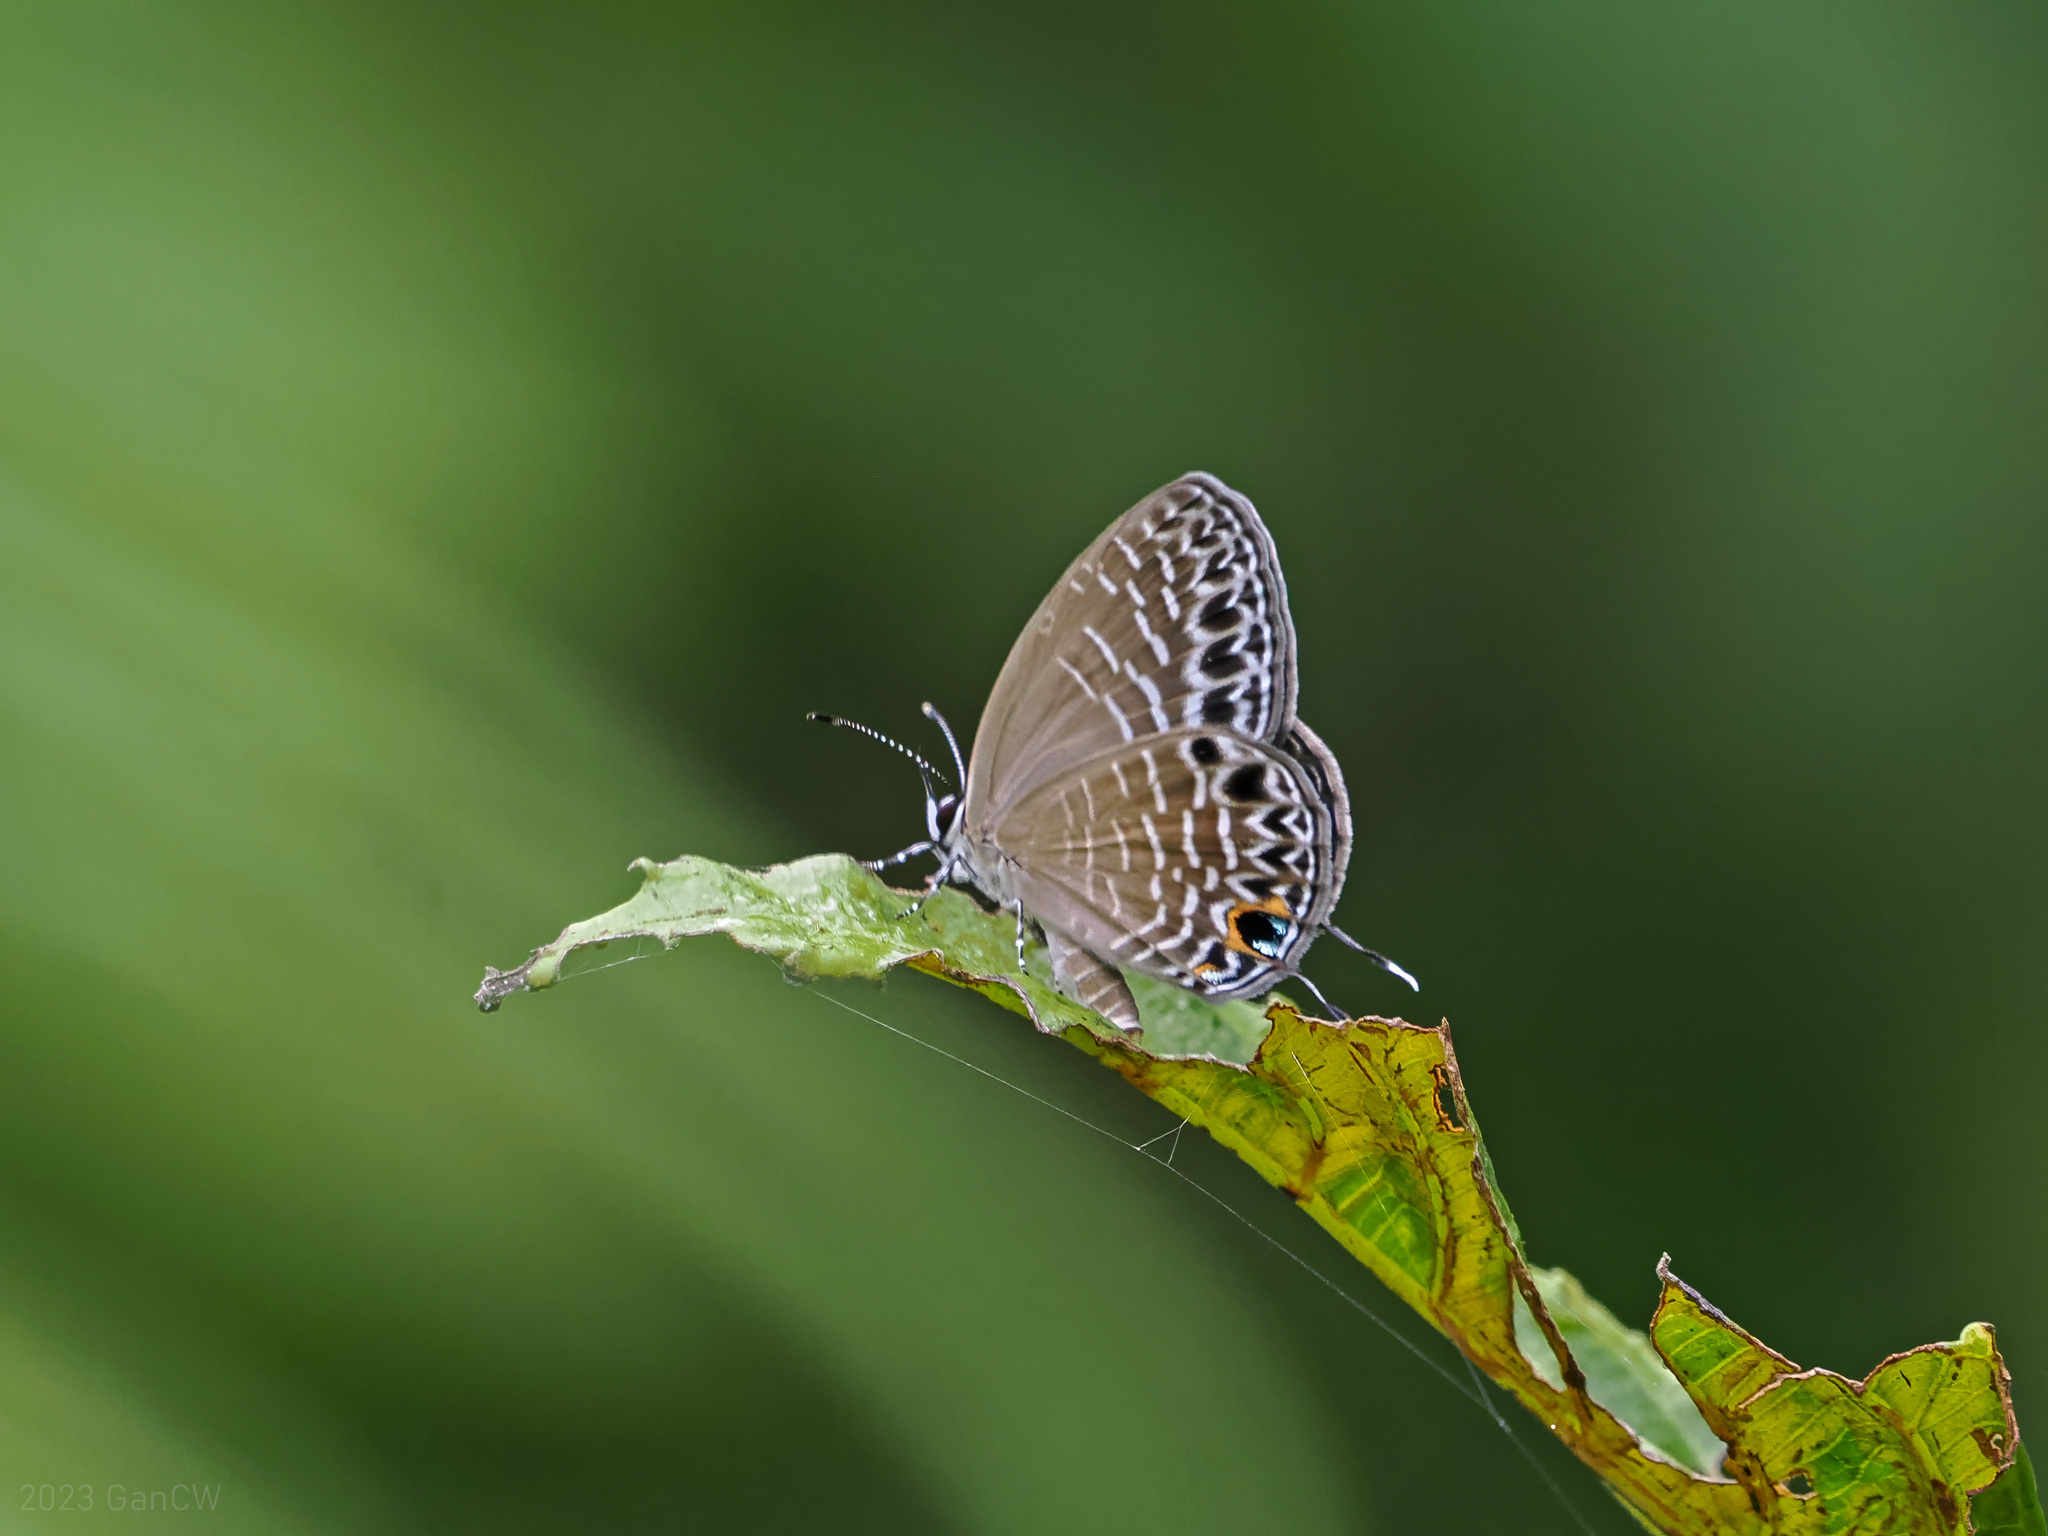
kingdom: Animalia
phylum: Arthropoda
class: Insecta
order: Lepidoptera
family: Lycaenidae
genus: Jamides
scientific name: Jamides
